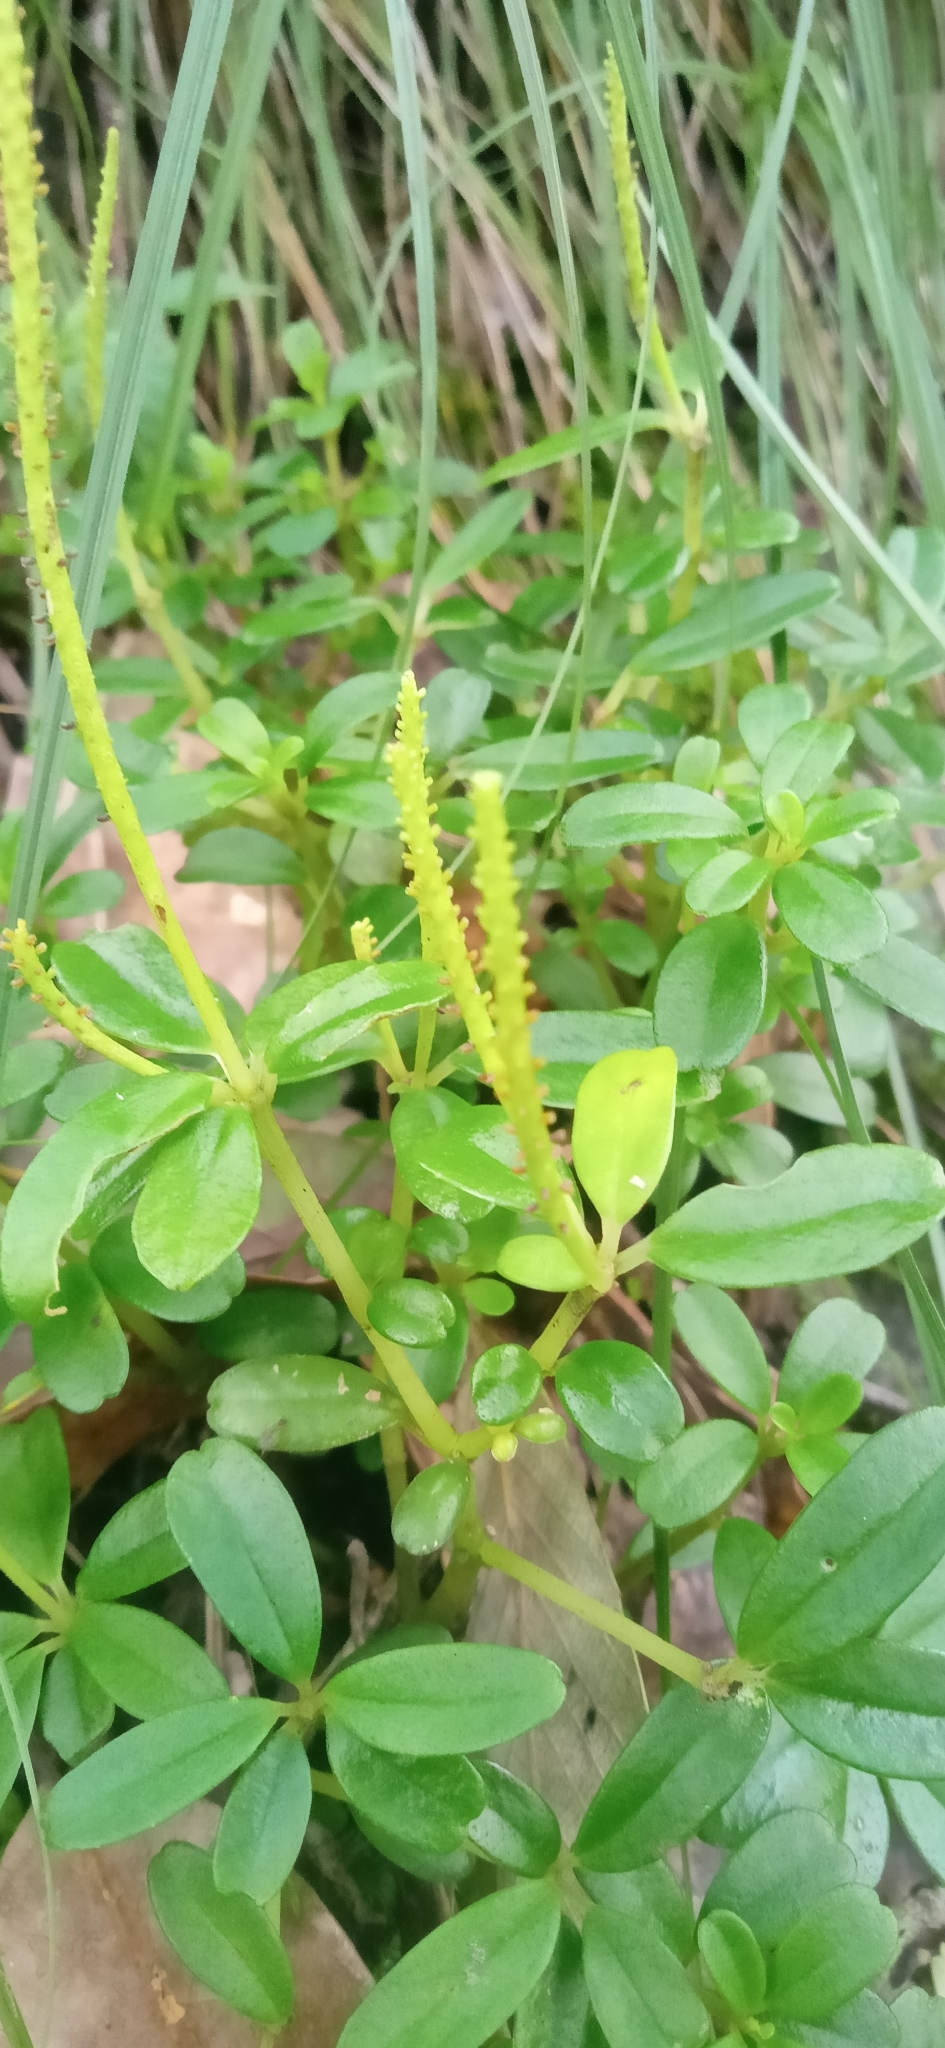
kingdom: Plantae
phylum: Tracheophyta
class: Magnoliopsida
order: Piperales
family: Piperaceae
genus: Peperomia
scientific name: Peperomia heyneana
